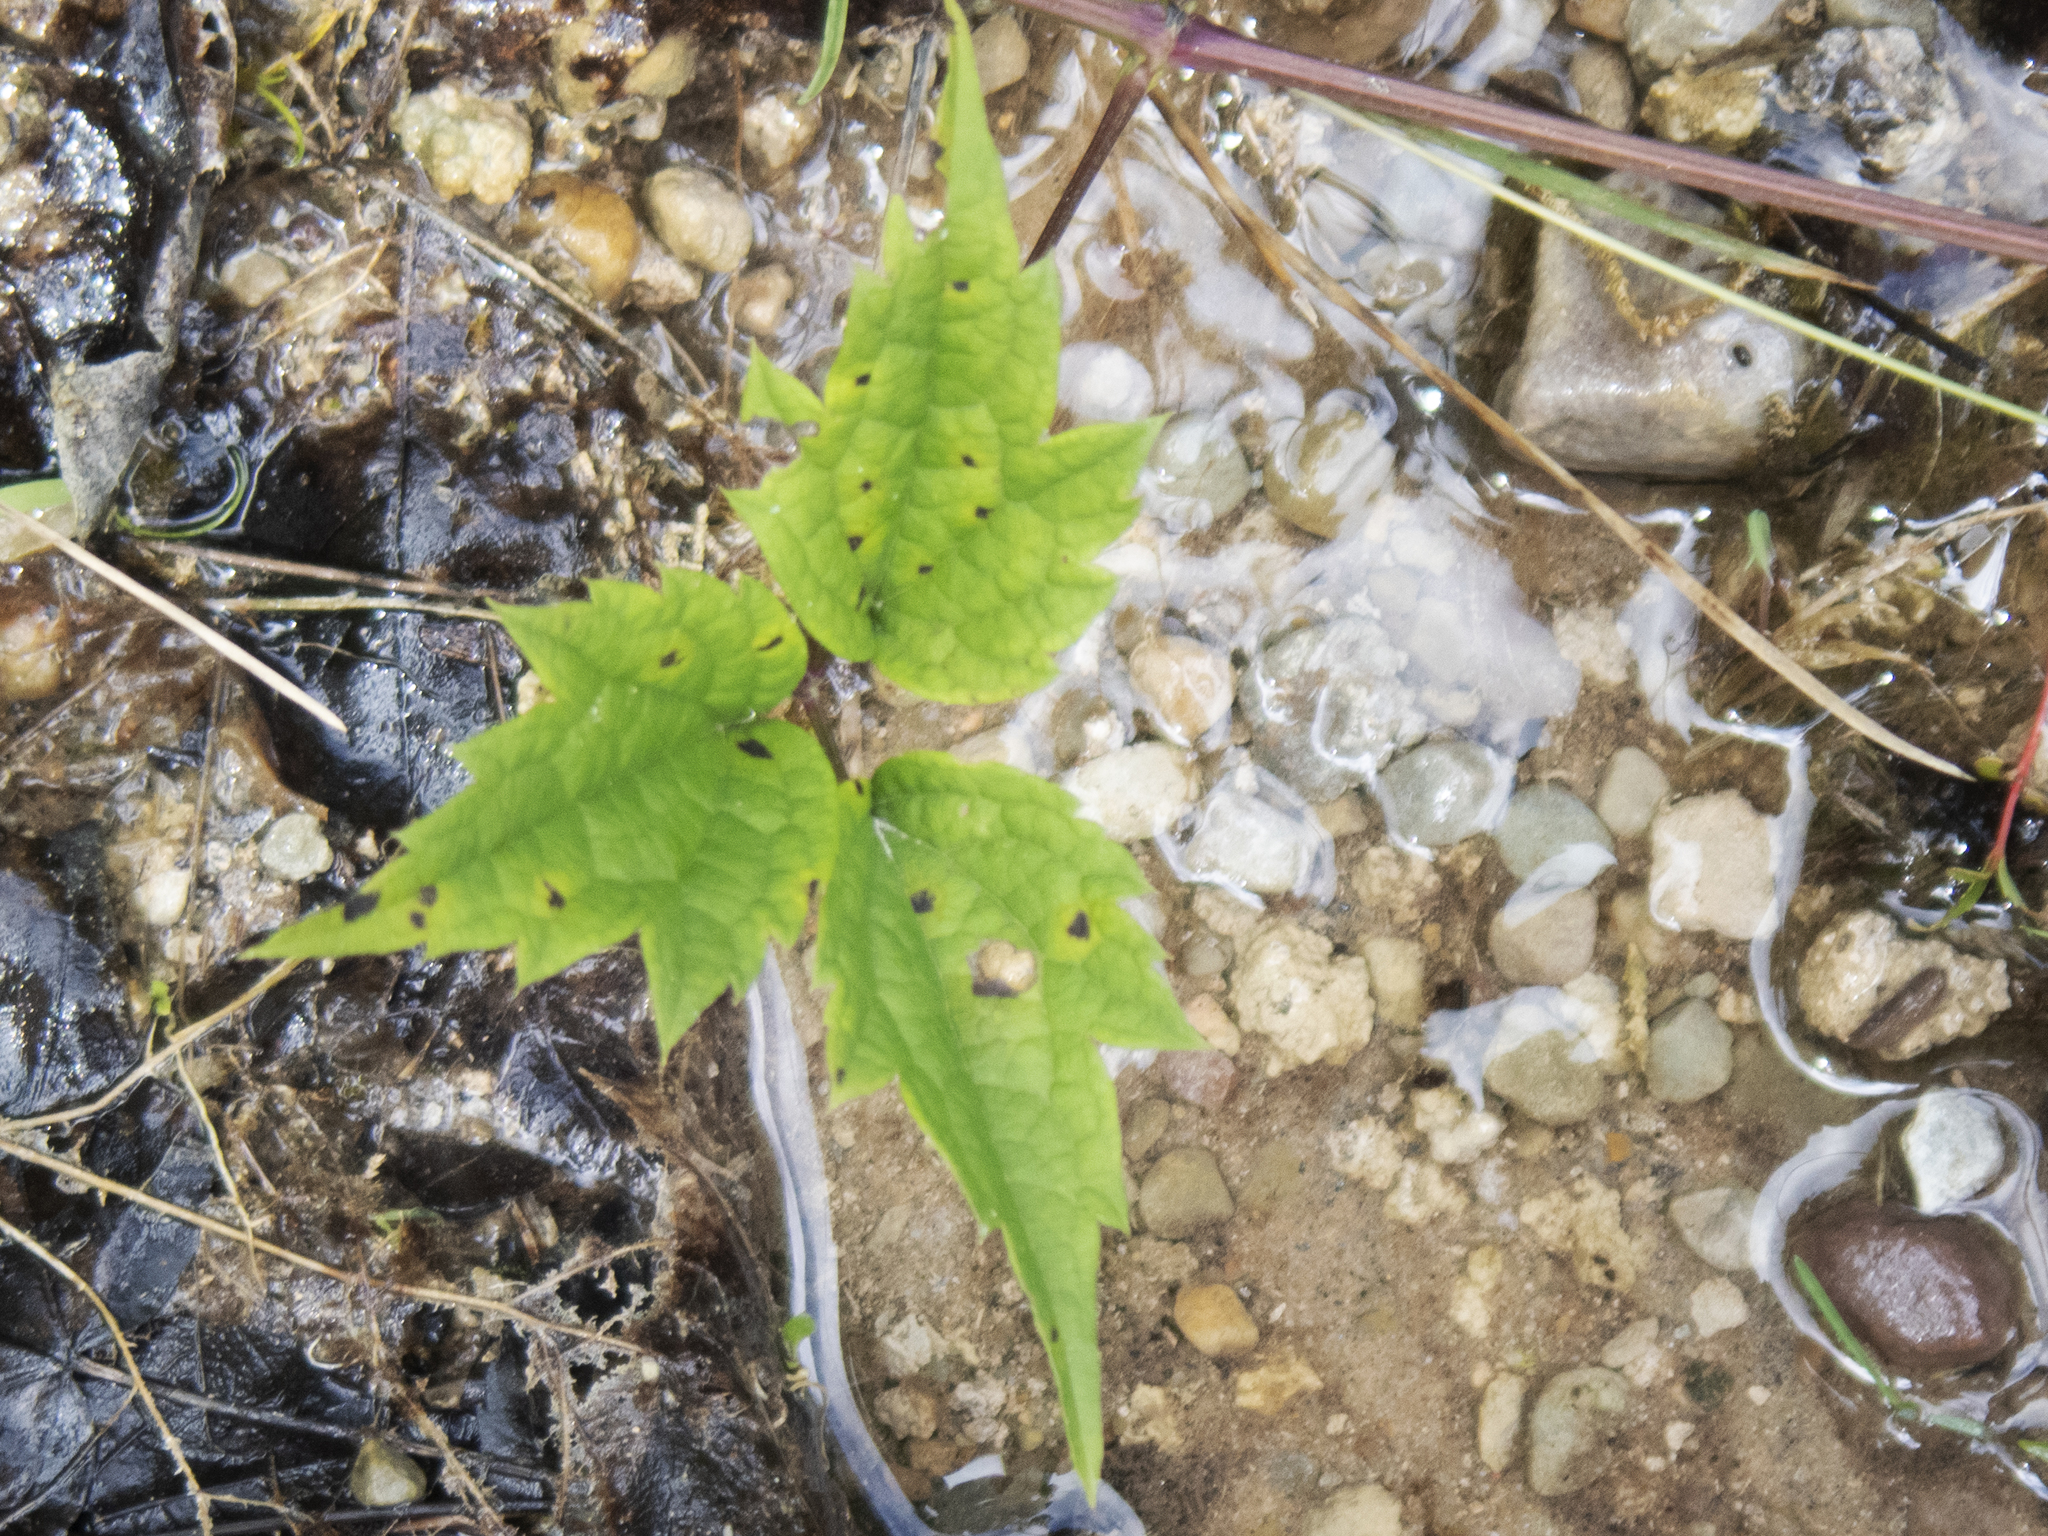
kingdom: Plantae
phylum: Tracheophyta
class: Magnoliopsida
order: Ranunculales
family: Ranunculaceae
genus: Clematis
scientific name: Clematis virginiana
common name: Virgin's-bower
